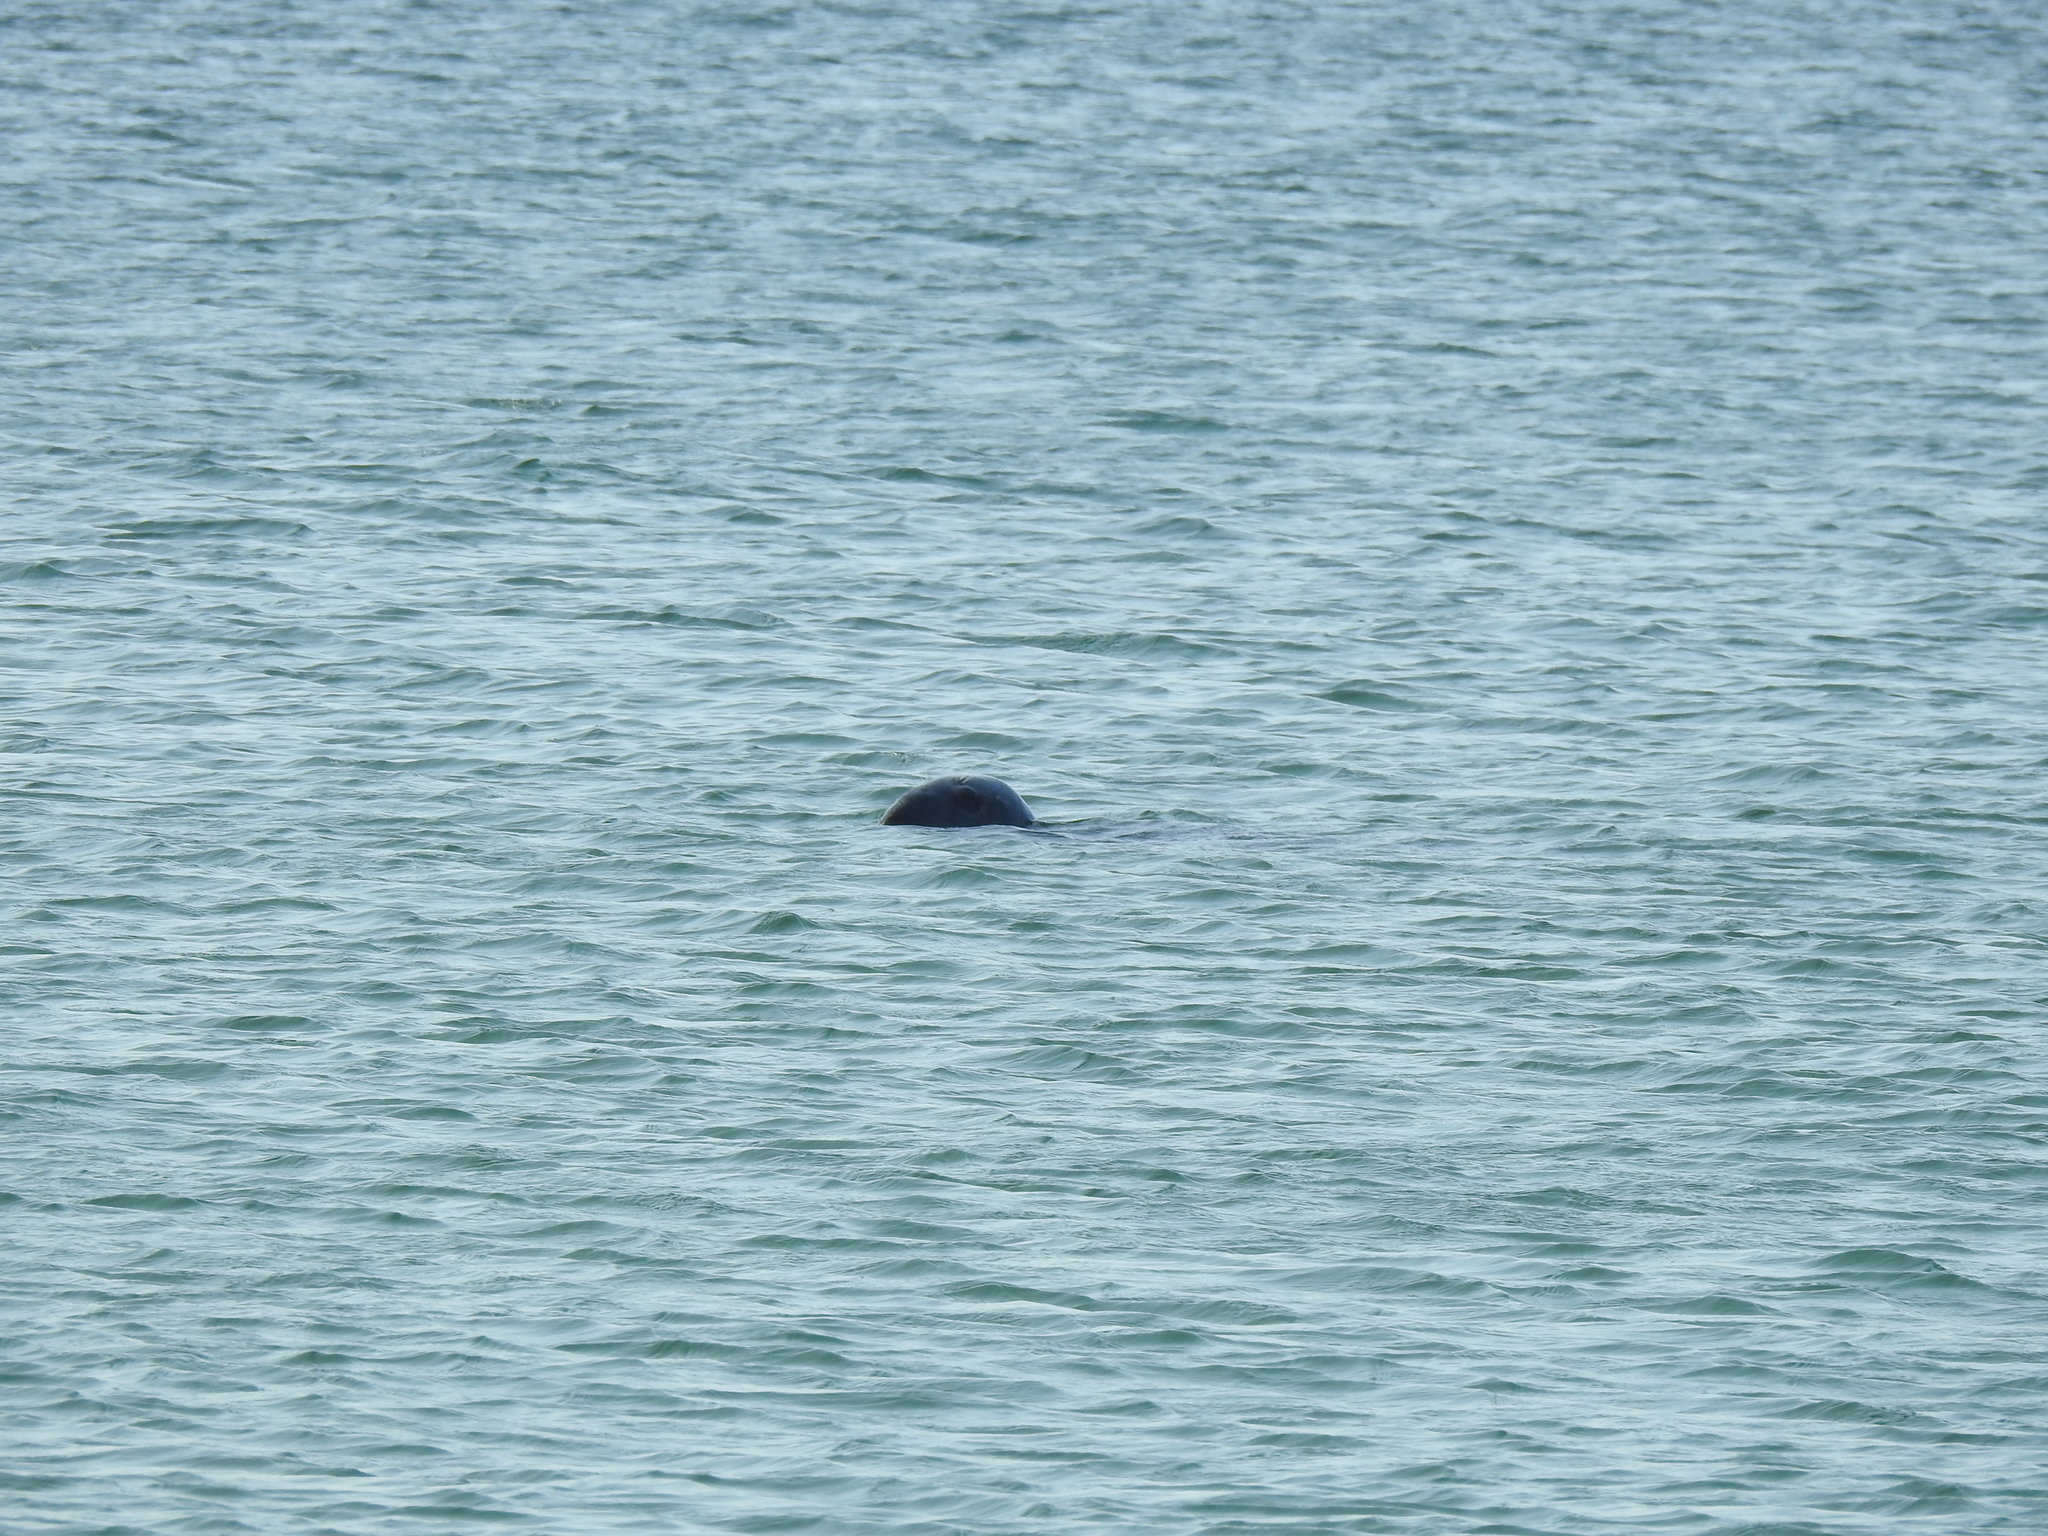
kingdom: Animalia
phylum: Chordata
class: Mammalia
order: Carnivora
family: Phocidae
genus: Halichoerus
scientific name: Halichoerus grypus
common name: Grey seal
